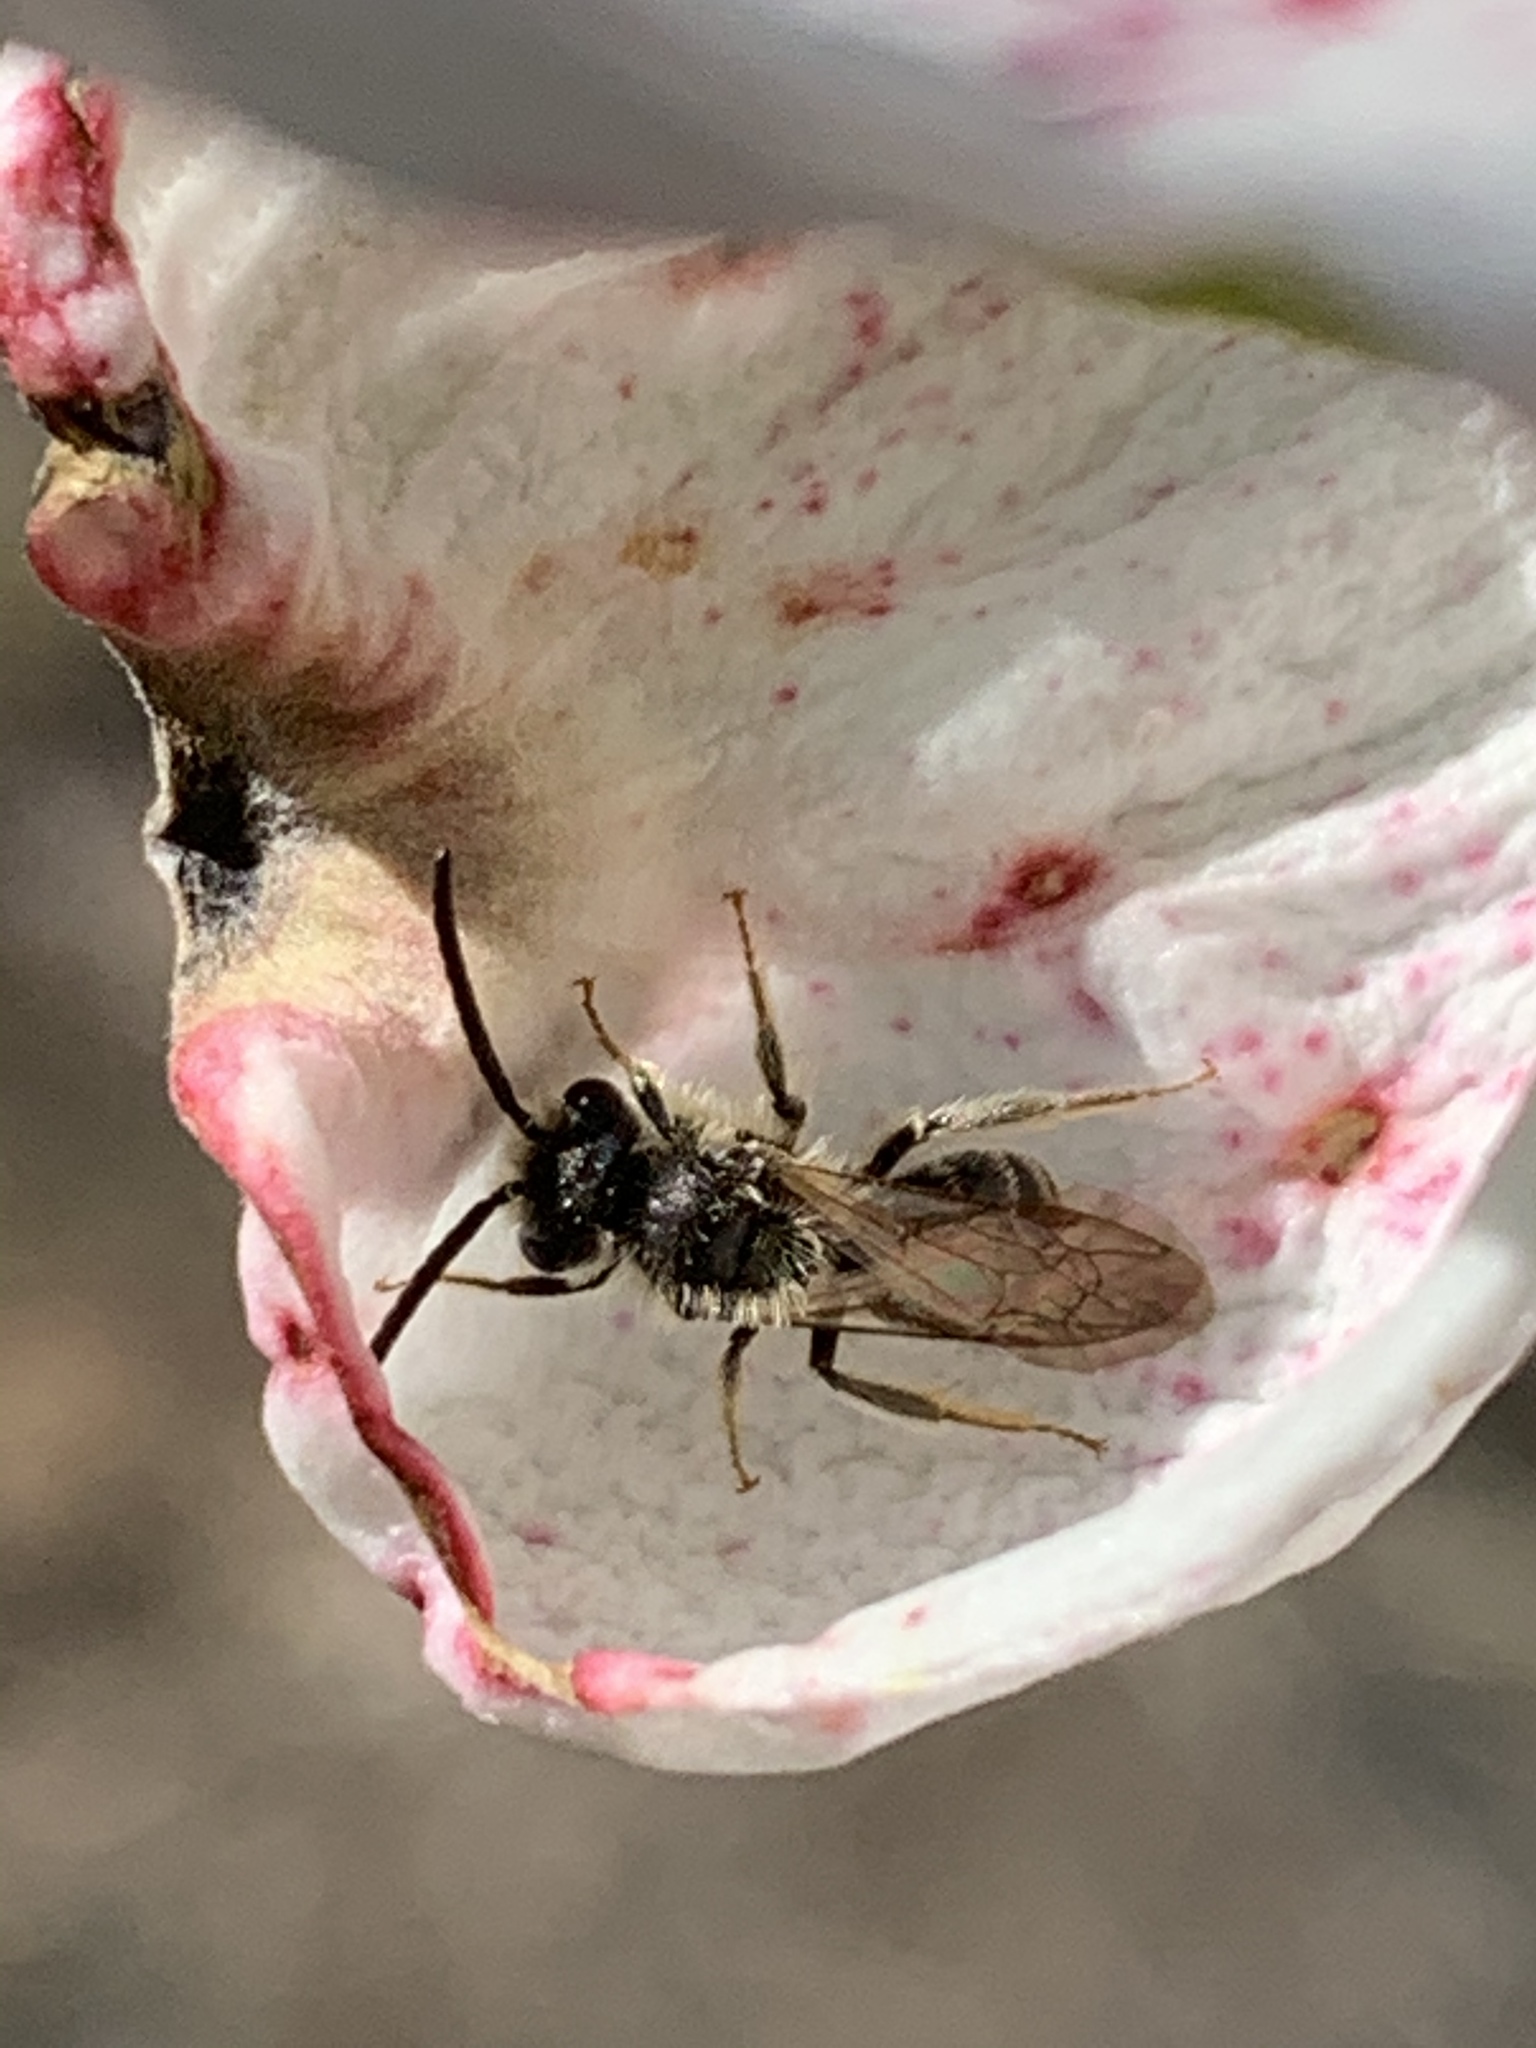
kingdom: Animalia
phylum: Arthropoda
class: Insecta
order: Hymenoptera
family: Andrenidae
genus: Andrena
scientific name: Andrena
